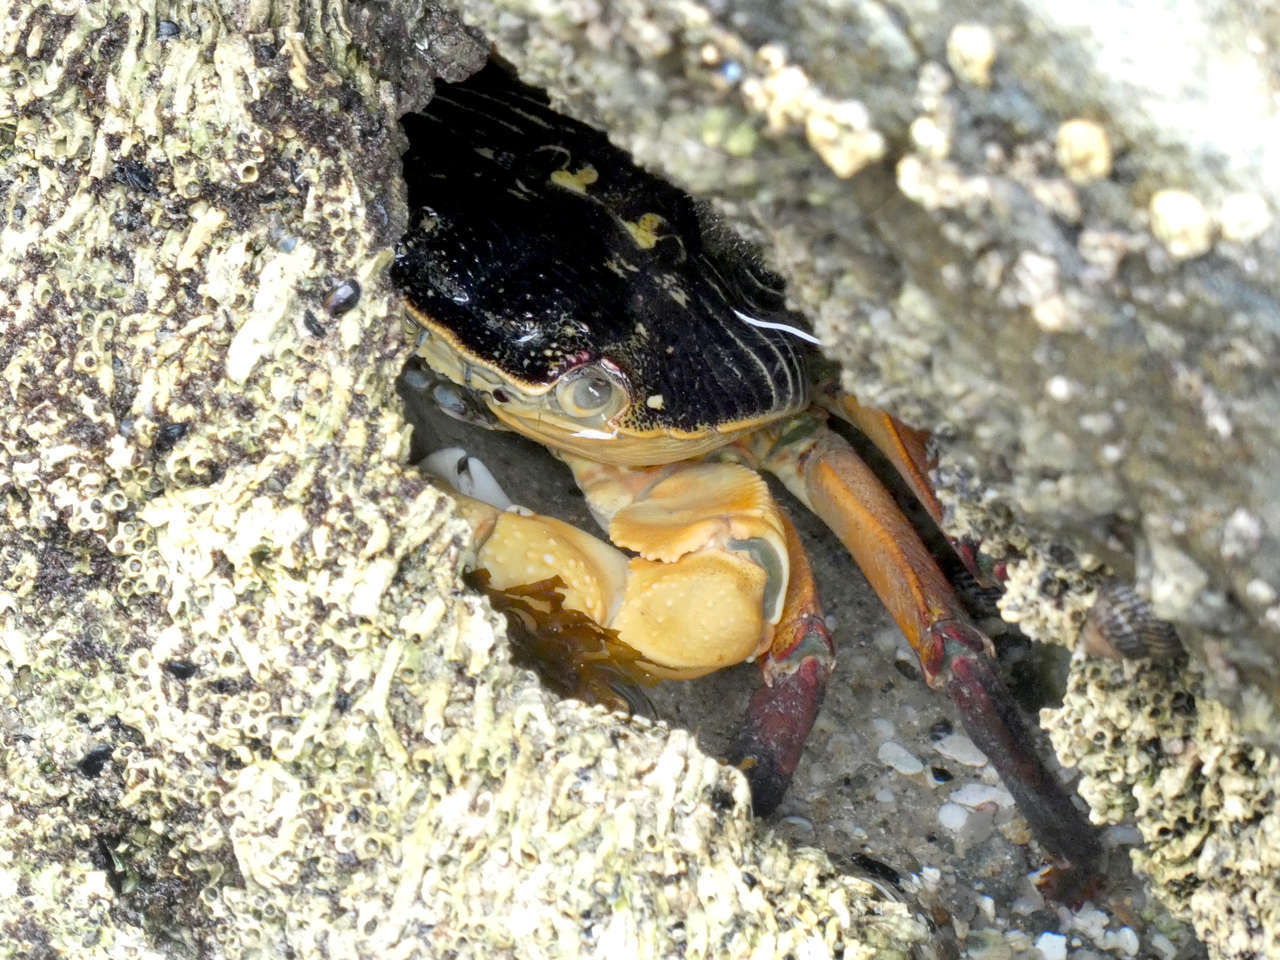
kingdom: Animalia
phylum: Arthropoda
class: Malacostraca
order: Decapoda
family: Grapsidae
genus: Leptograpsus
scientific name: Leptograpsus variegatus
